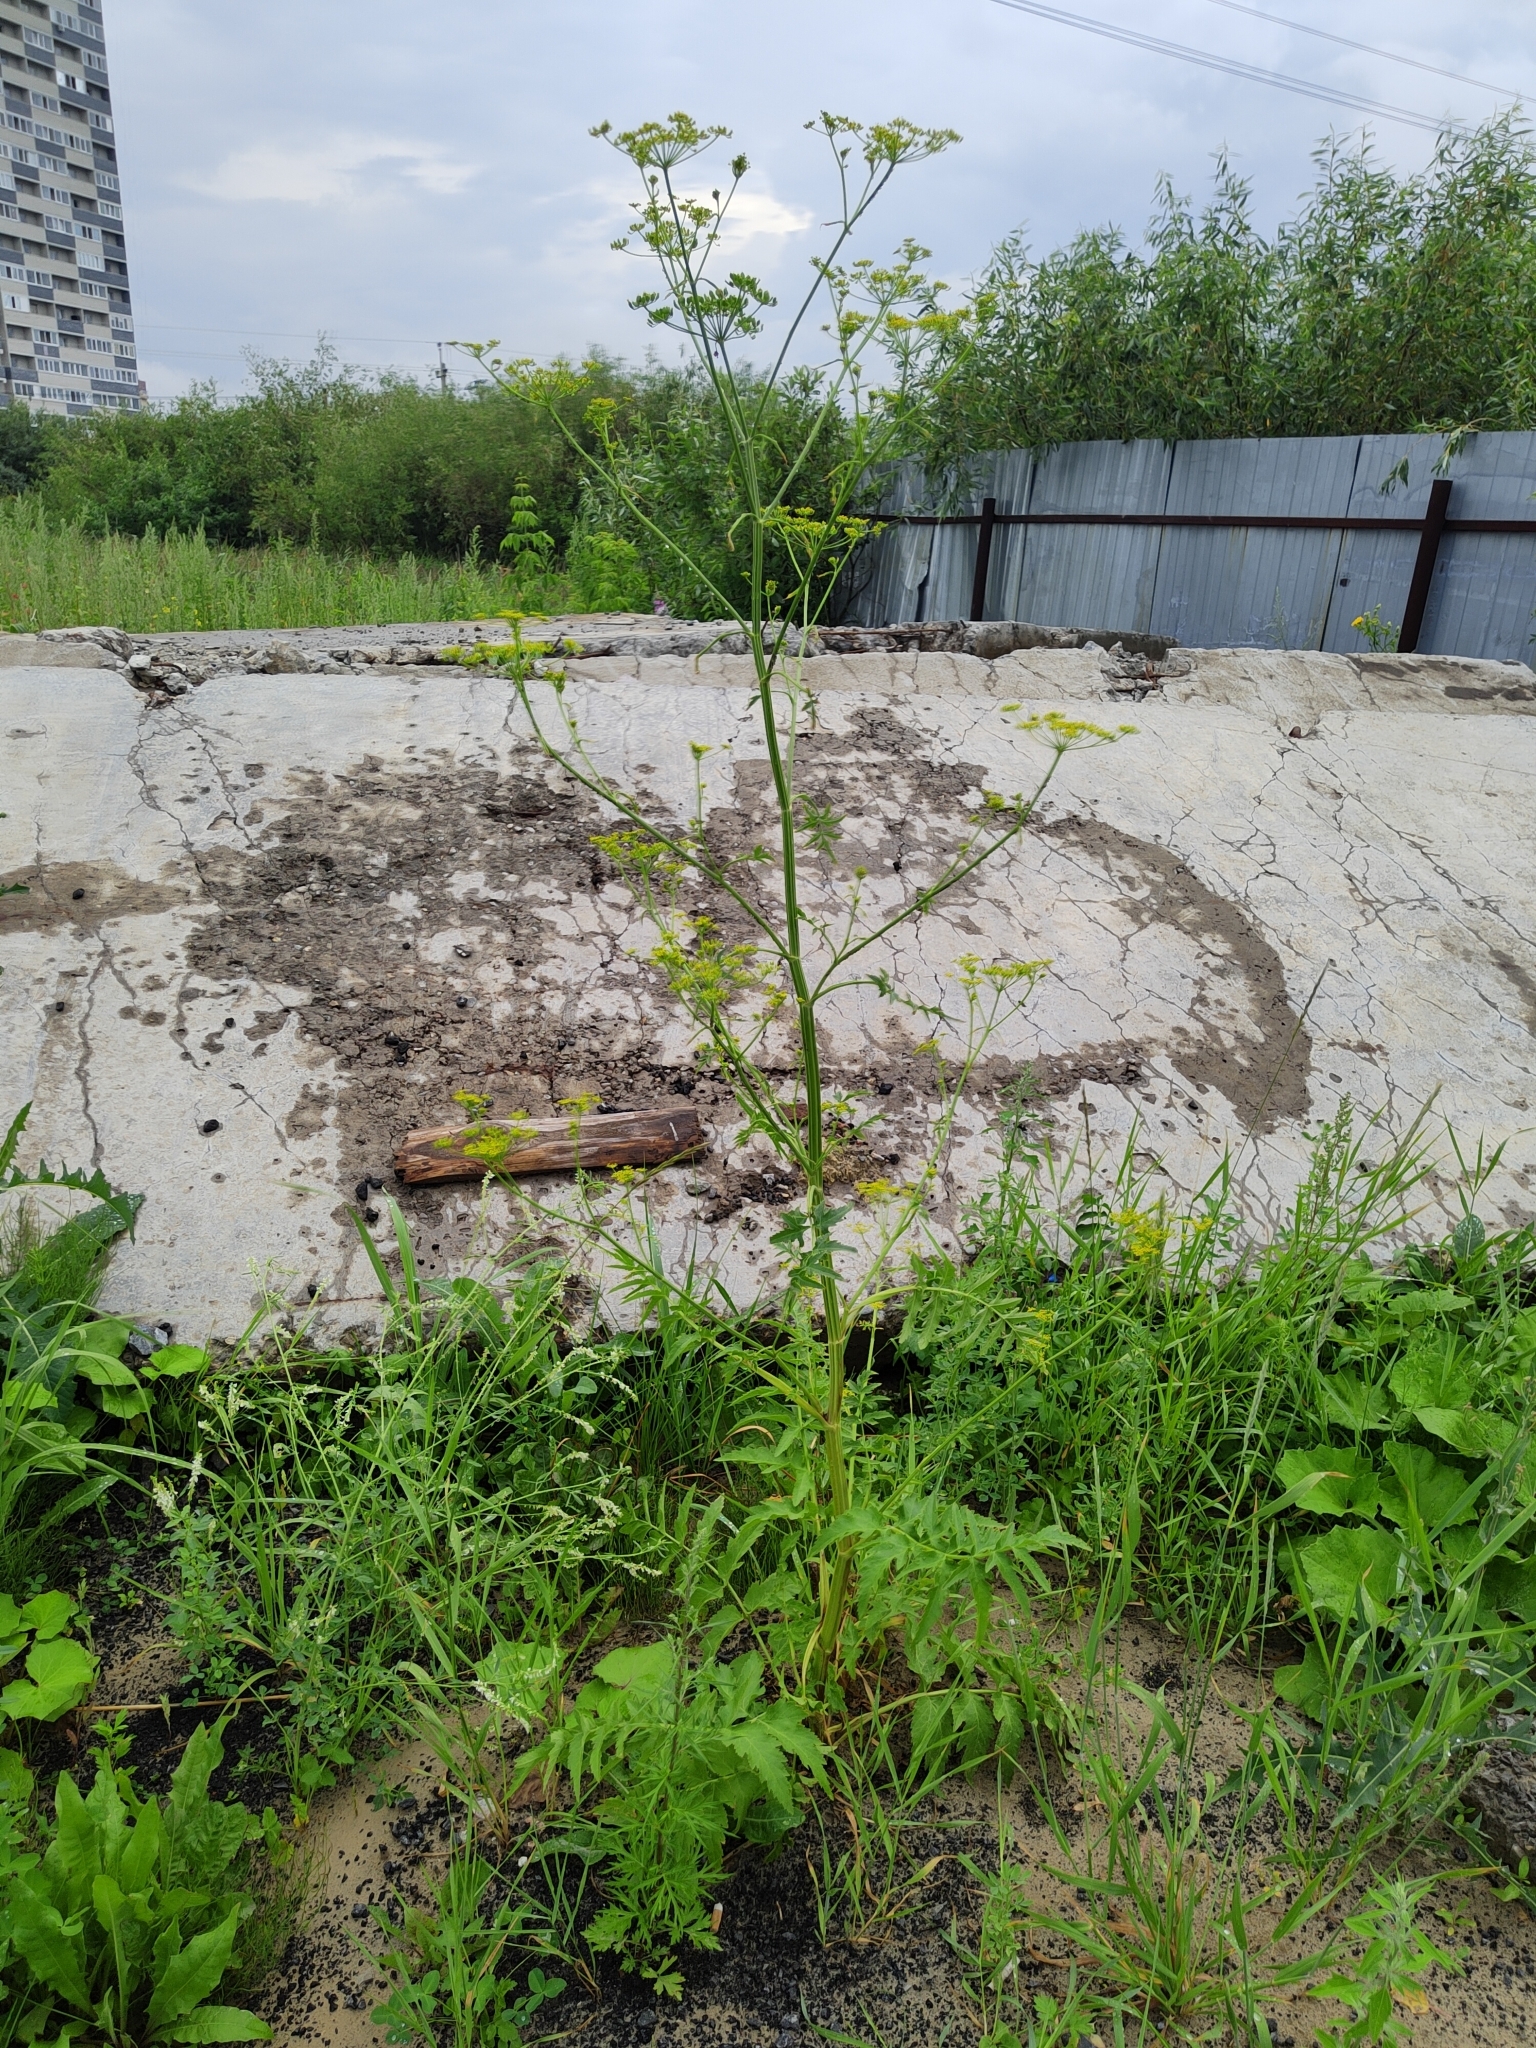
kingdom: Plantae
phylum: Tracheophyta
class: Magnoliopsida
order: Apiales
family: Apiaceae
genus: Pastinaca
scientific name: Pastinaca sativa
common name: Wild parsnip
